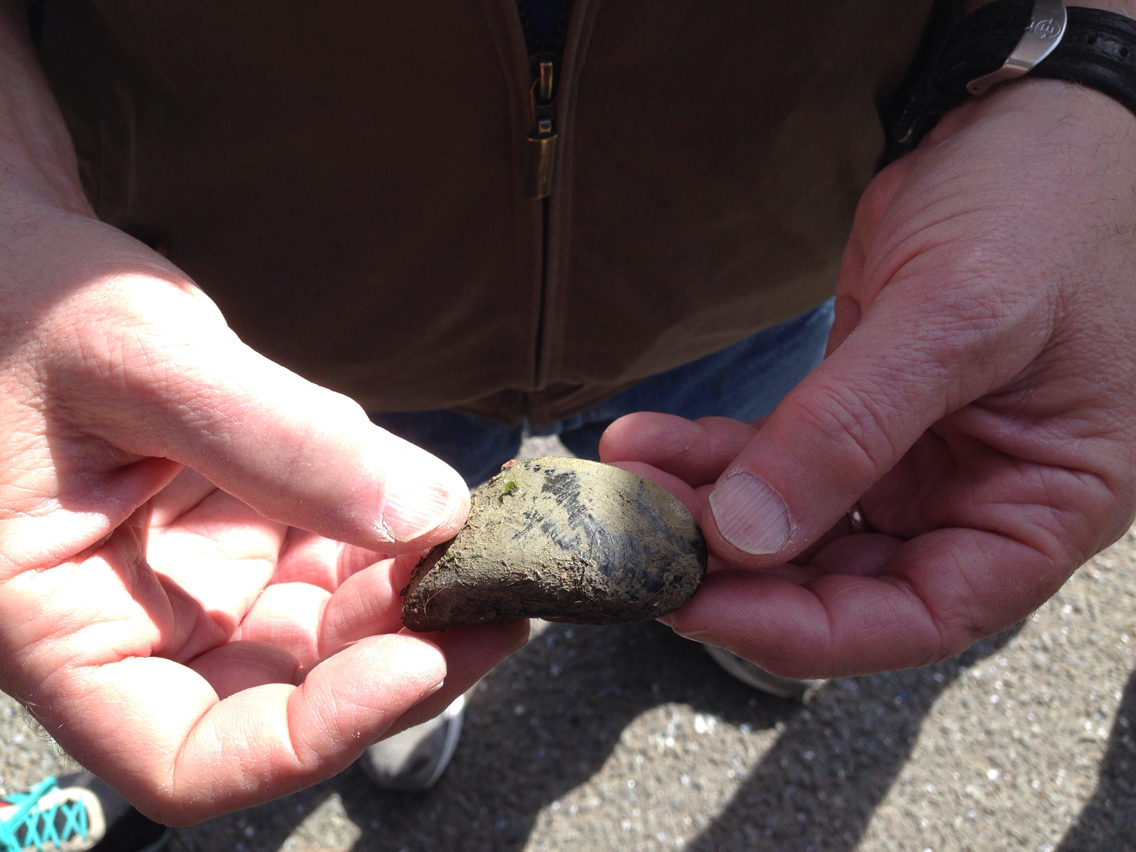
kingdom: Animalia
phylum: Mollusca
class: Bivalvia
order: Mytilida
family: Mytilidae
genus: Mytilus
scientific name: Mytilus galloprovincialis
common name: Mediterranean mussel
